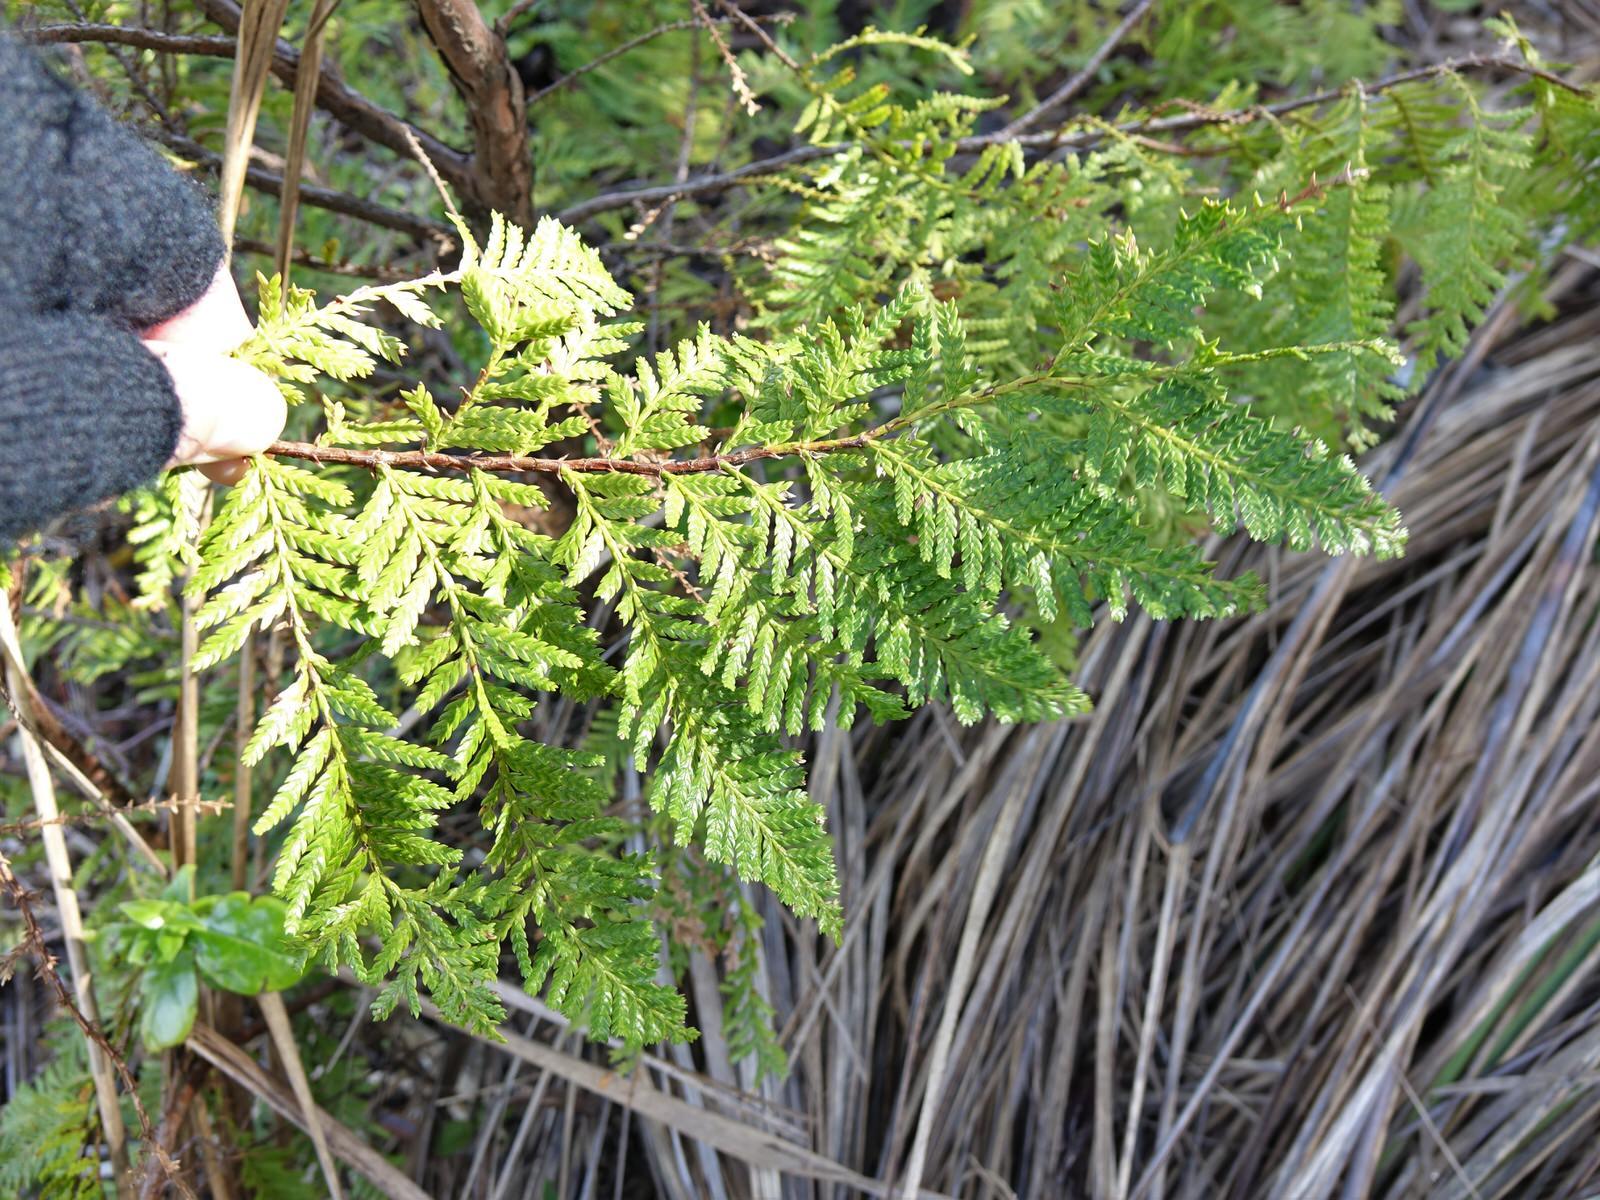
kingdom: Plantae
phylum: Tracheophyta
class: Pinopsida
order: Pinales
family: Cupressaceae
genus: Libocedrus
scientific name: Libocedrus plumosa
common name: New zealand cedar
